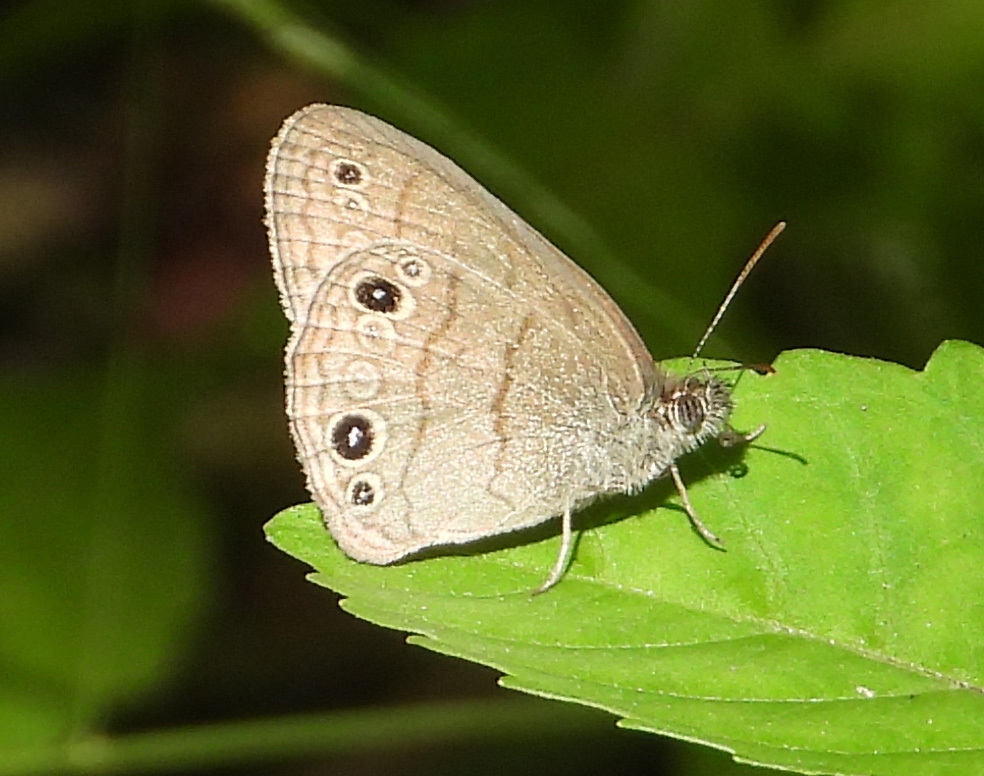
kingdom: Animalia
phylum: Arthropoda
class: Insecta
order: Lepidoptera
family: Nymphalidae
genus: Hermeuptychia
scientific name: Hermeuptychia hermes
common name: Hermes satyr
